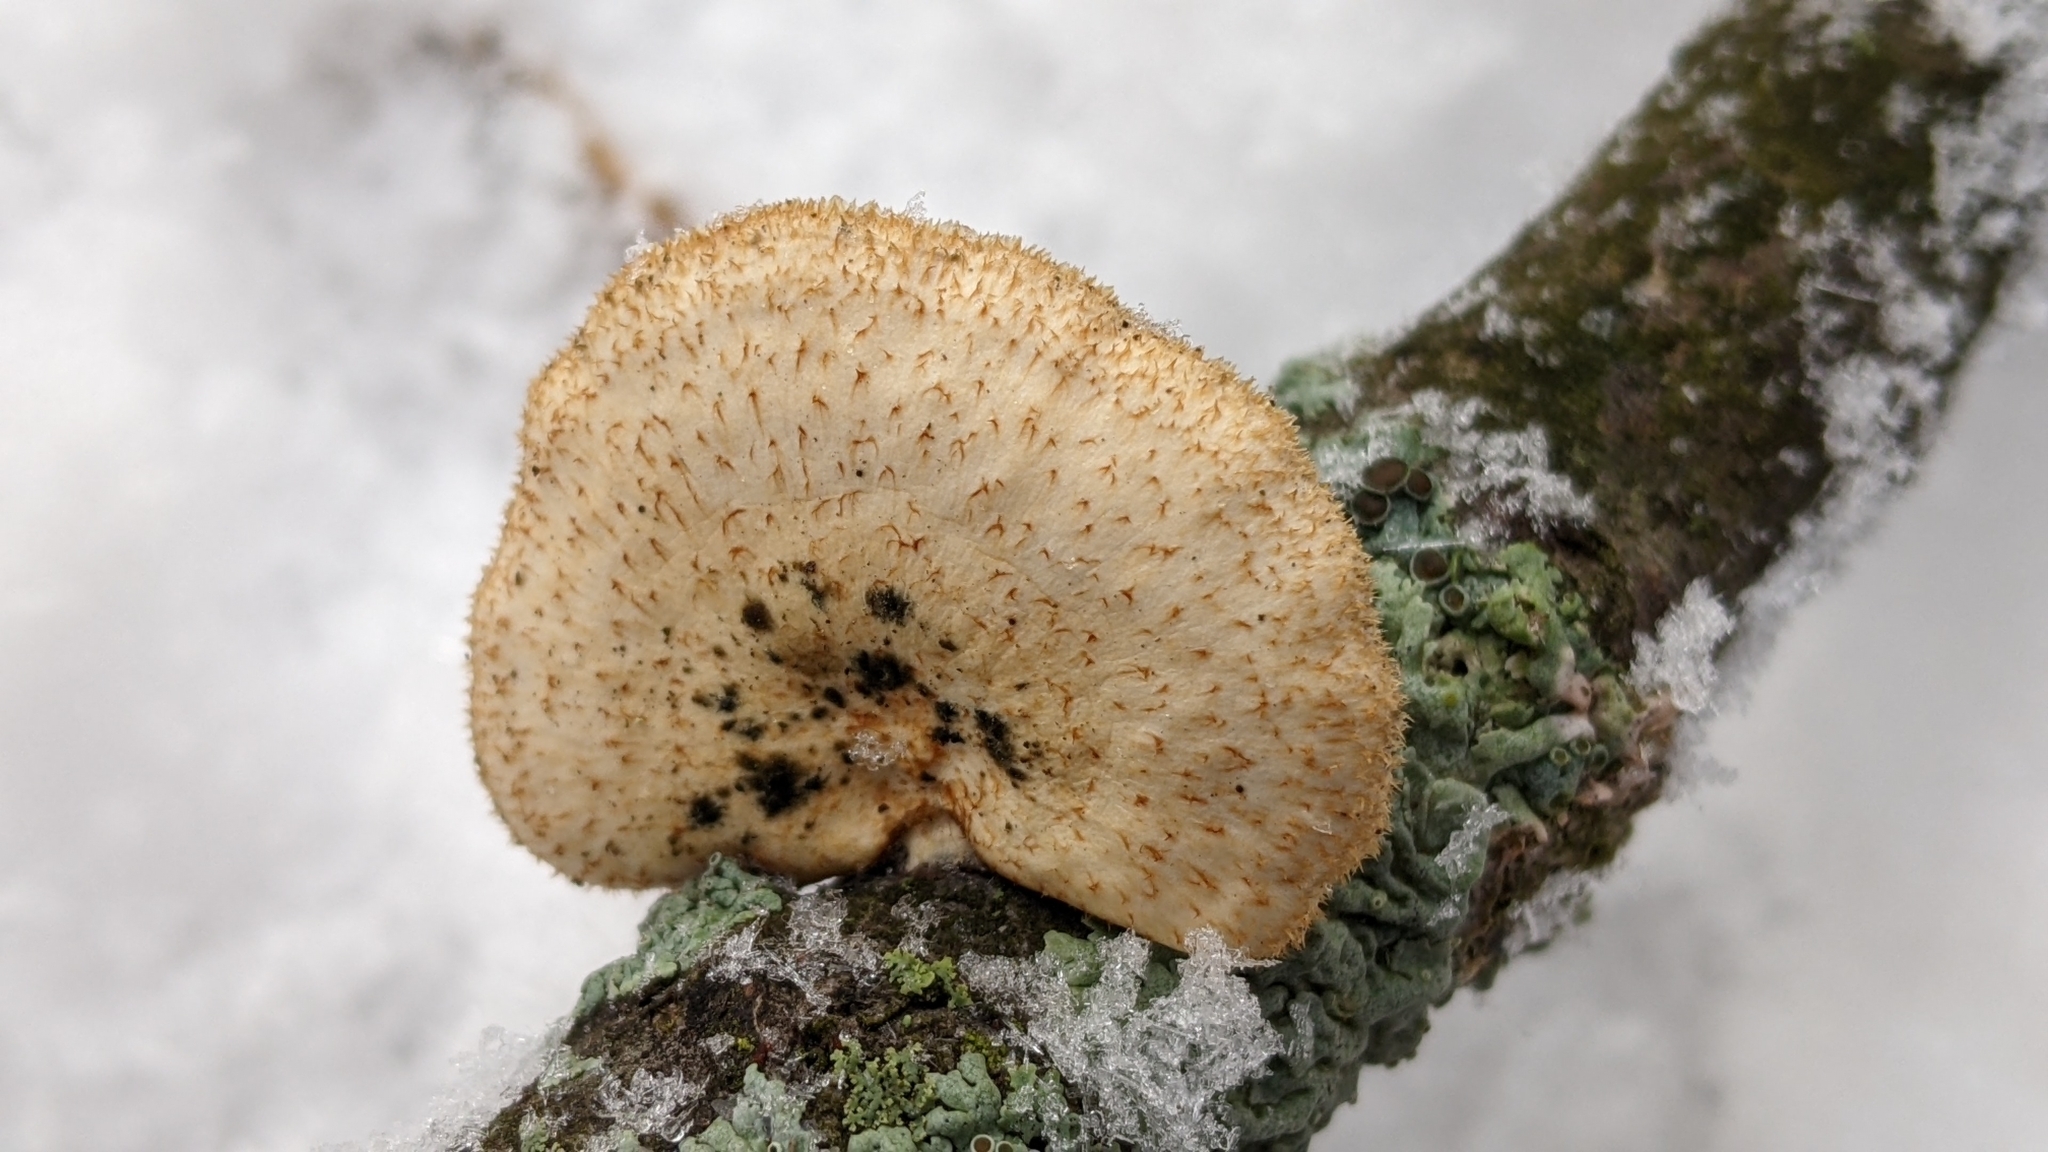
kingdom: Fungi
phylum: Basidiomycota
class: Agaricomycetes
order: Polyporales
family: Polyporaceae
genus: Neofavolus
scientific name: Neofavolus alveolaris
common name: Hexagonal-pored polypore
